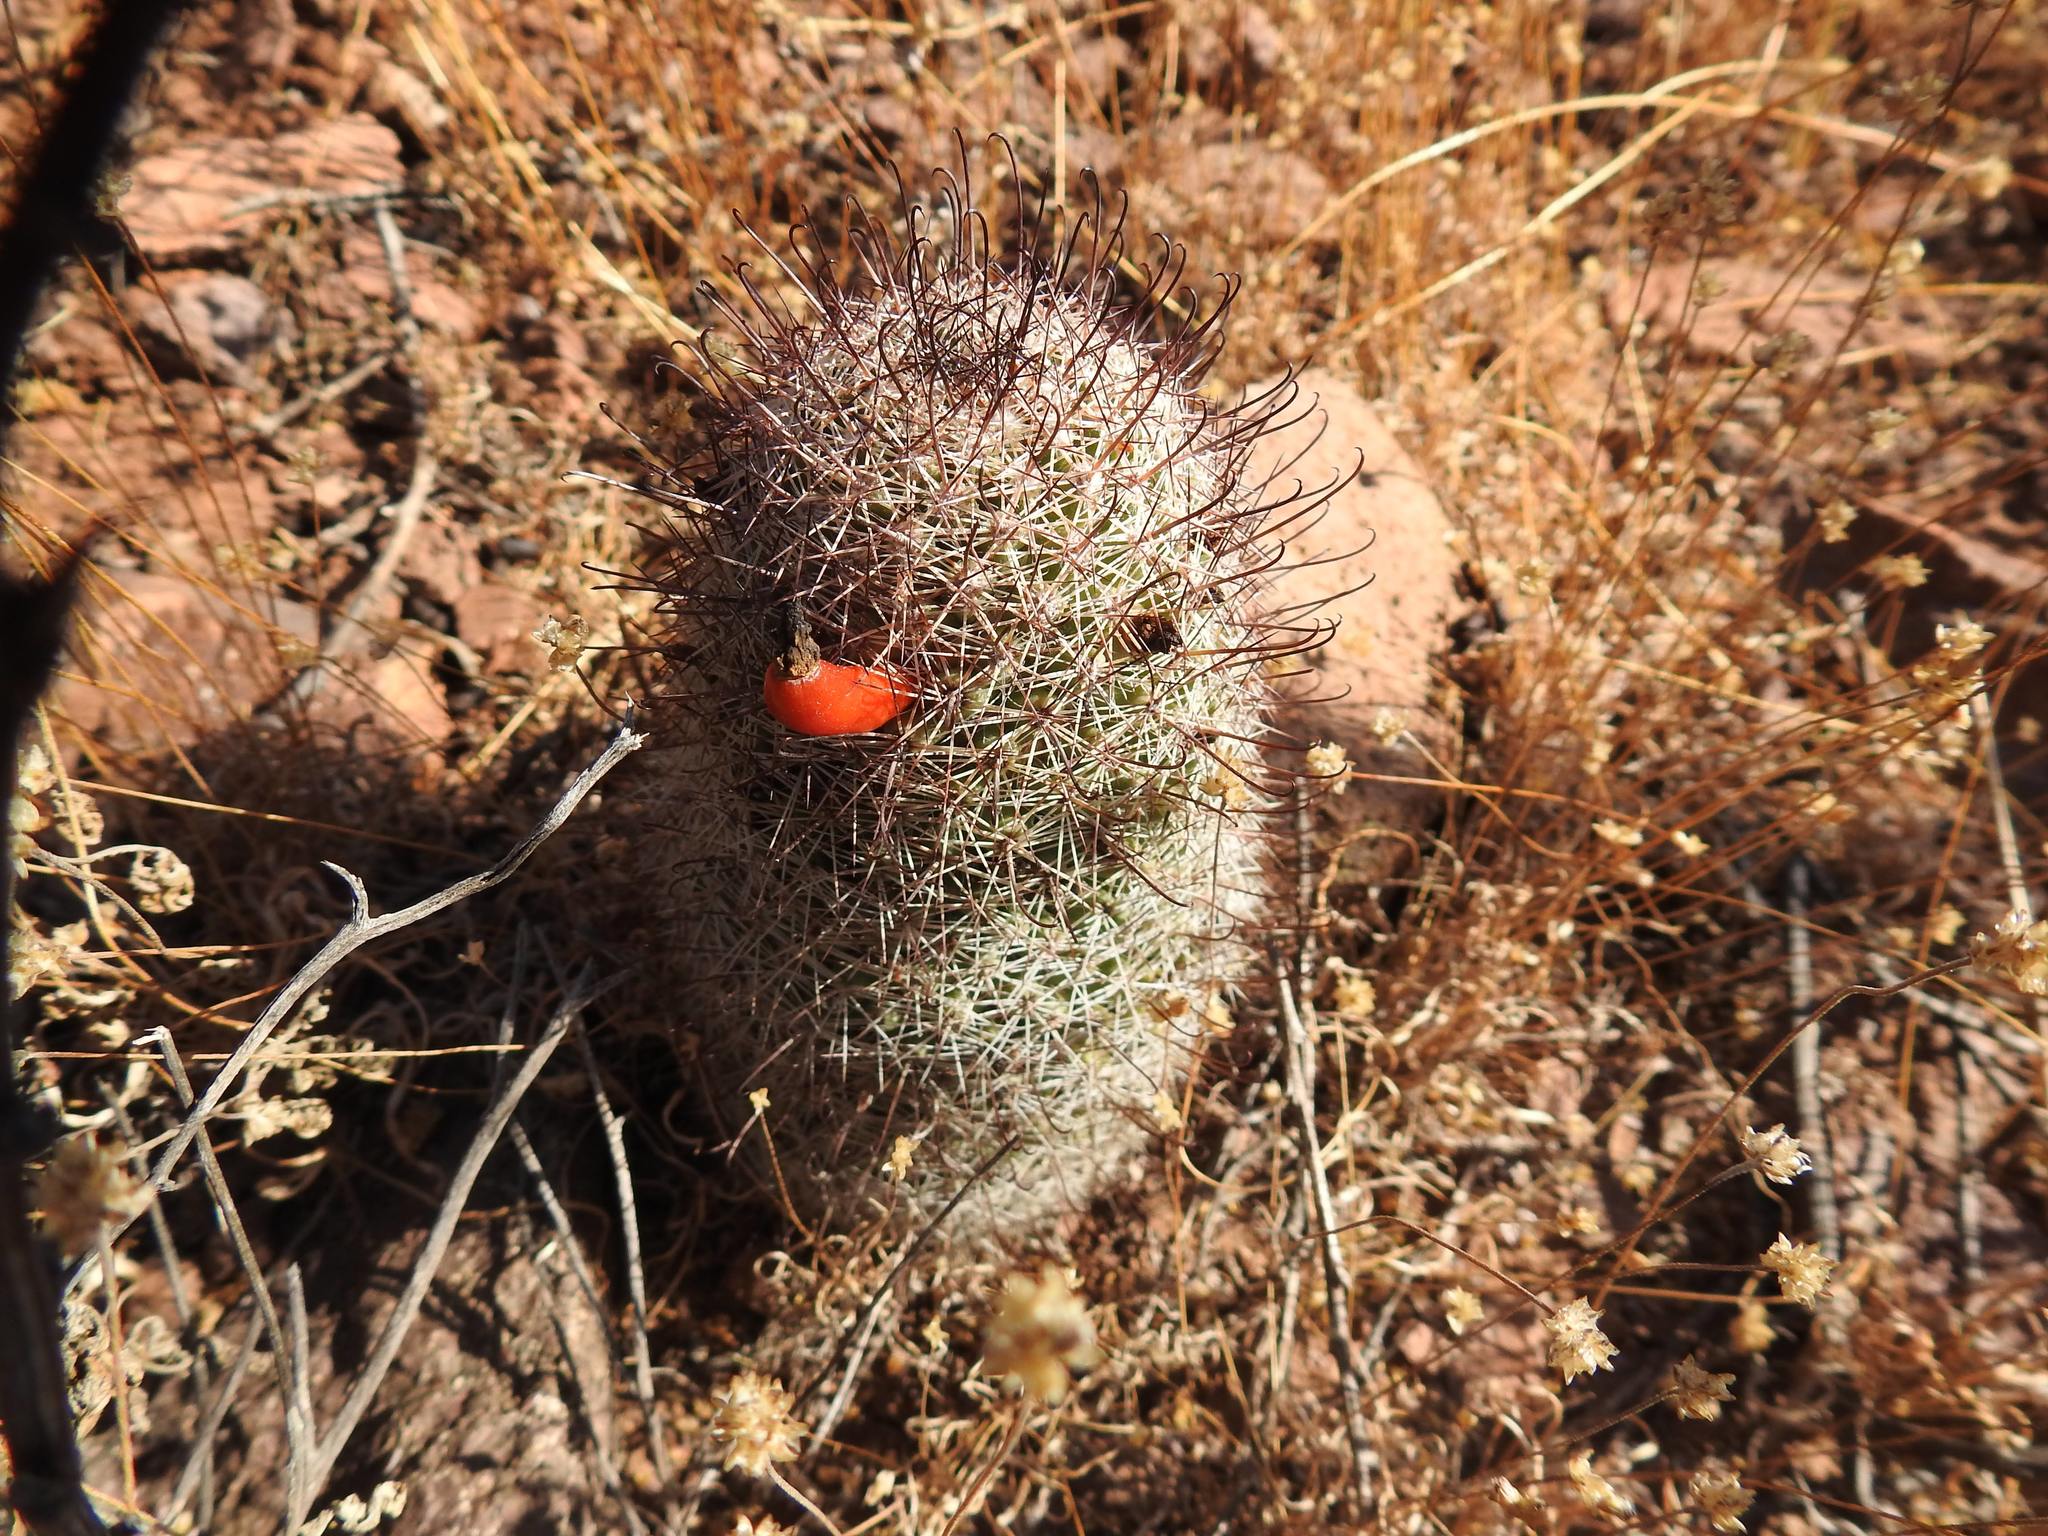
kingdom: Plantae
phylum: Tracheophyta
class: Magnoliopsida
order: Caryophyllales
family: Cactaceae
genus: Cochemiea
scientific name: Cochemiea dioica
